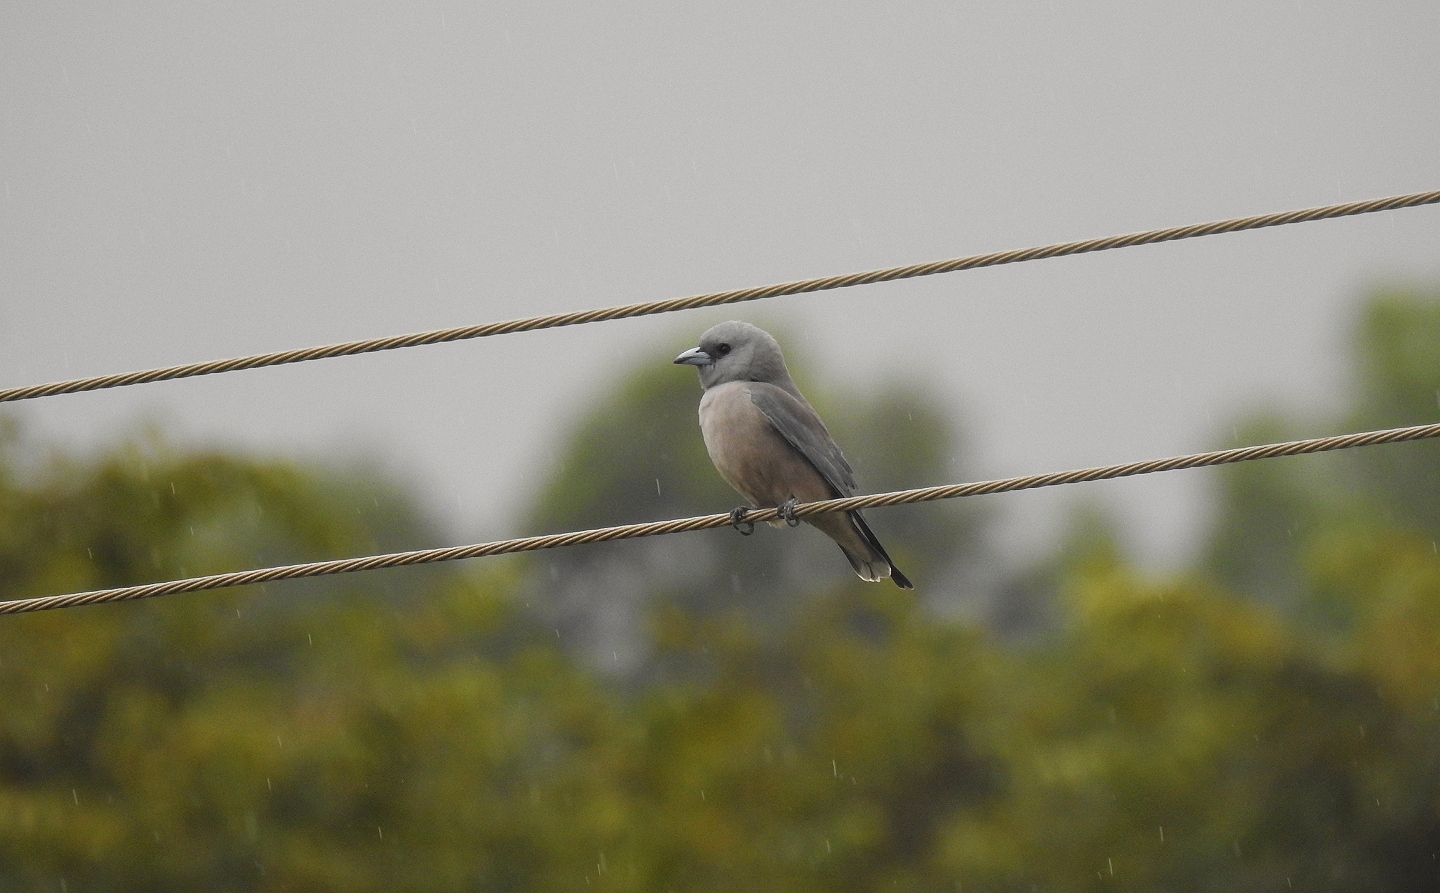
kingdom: Animalia
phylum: Chordata
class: Aves
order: Passeriformes
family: Artamidae
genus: Artamus
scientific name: Artamus fuscus
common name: Ashy woodswallow
